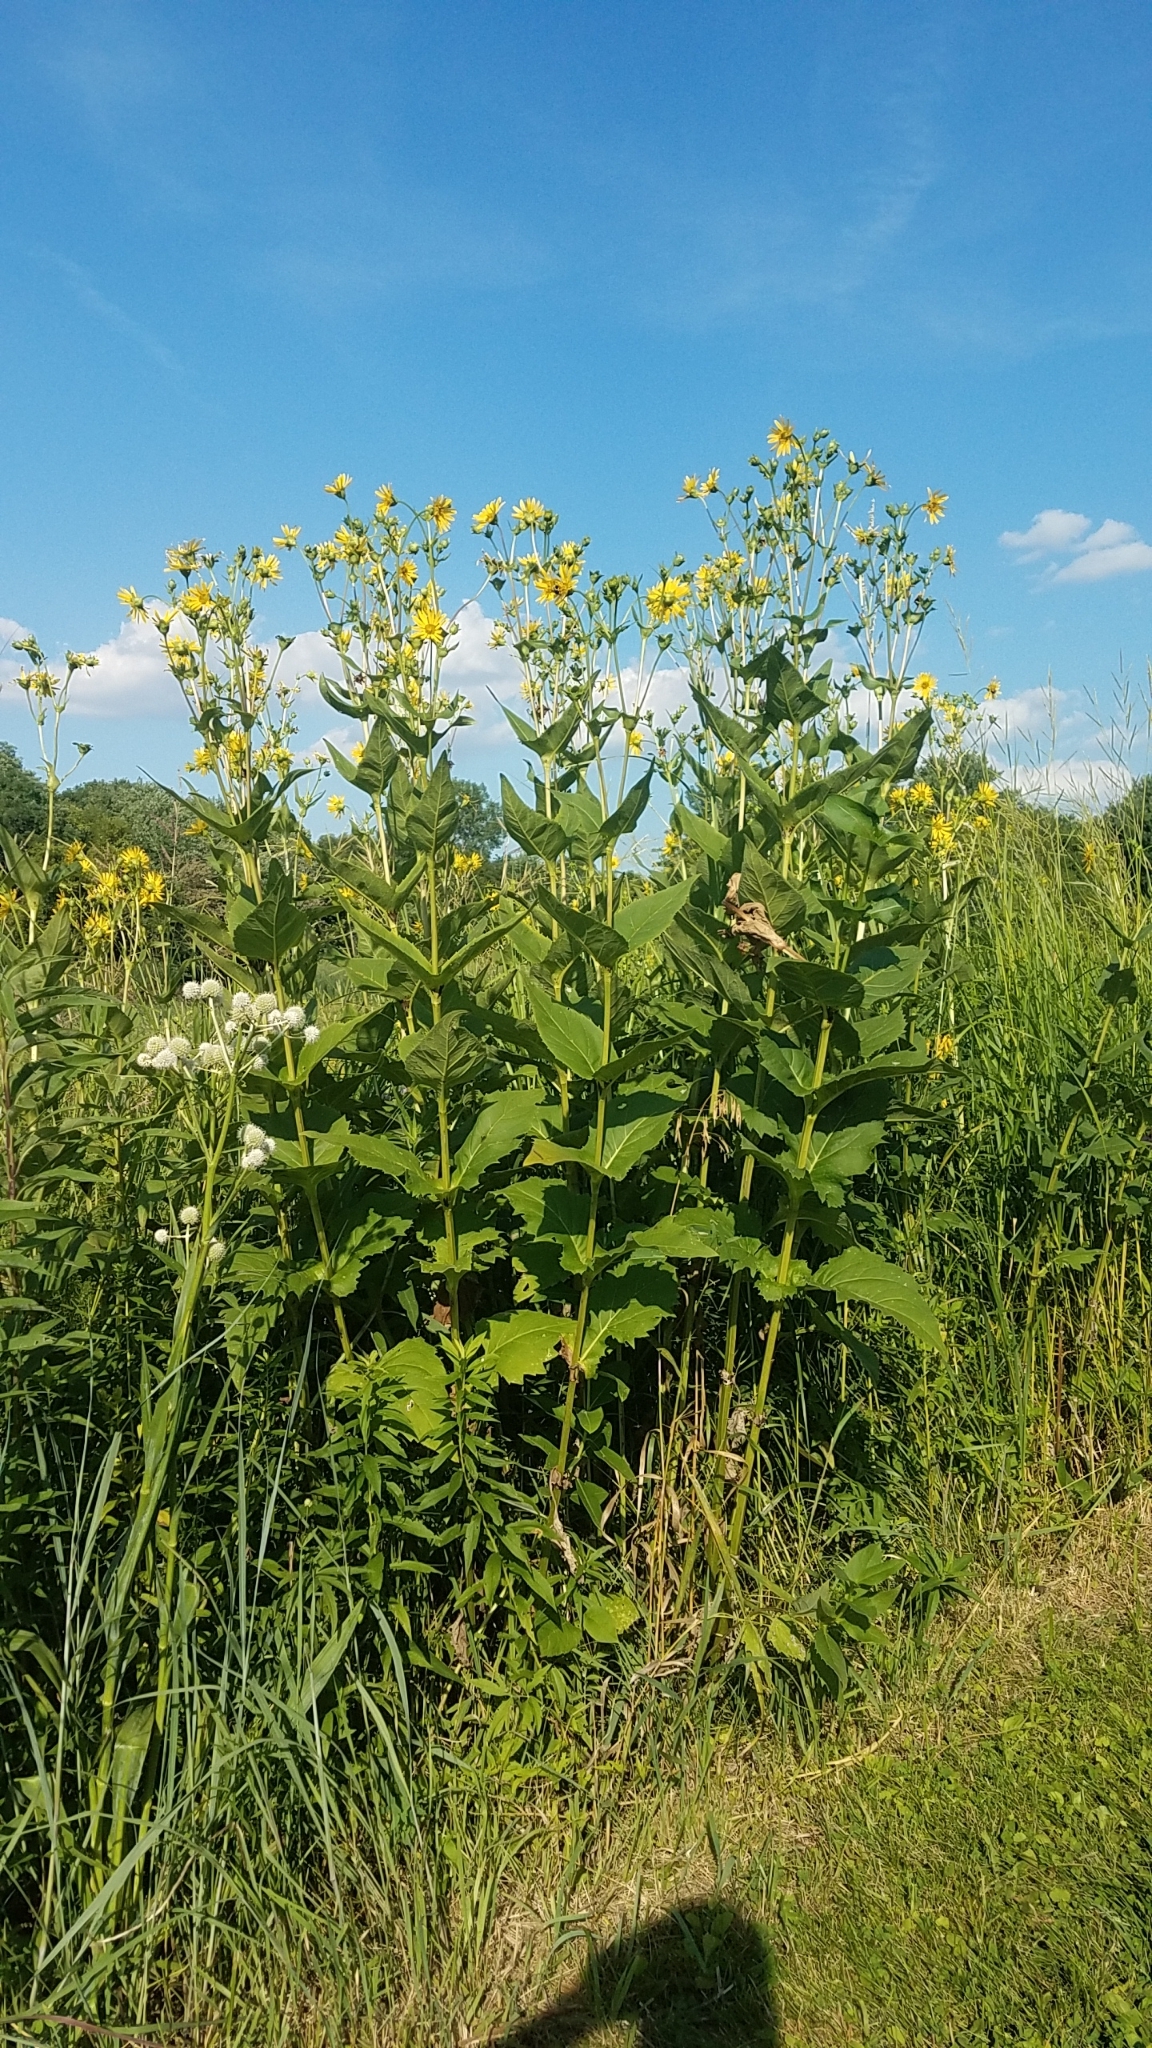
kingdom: Plantae
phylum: Tracheophyta
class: Magnoliopsida
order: Asterales
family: Asteraceae
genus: Silphium
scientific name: Silphium perfoliatum
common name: Cup-plant
